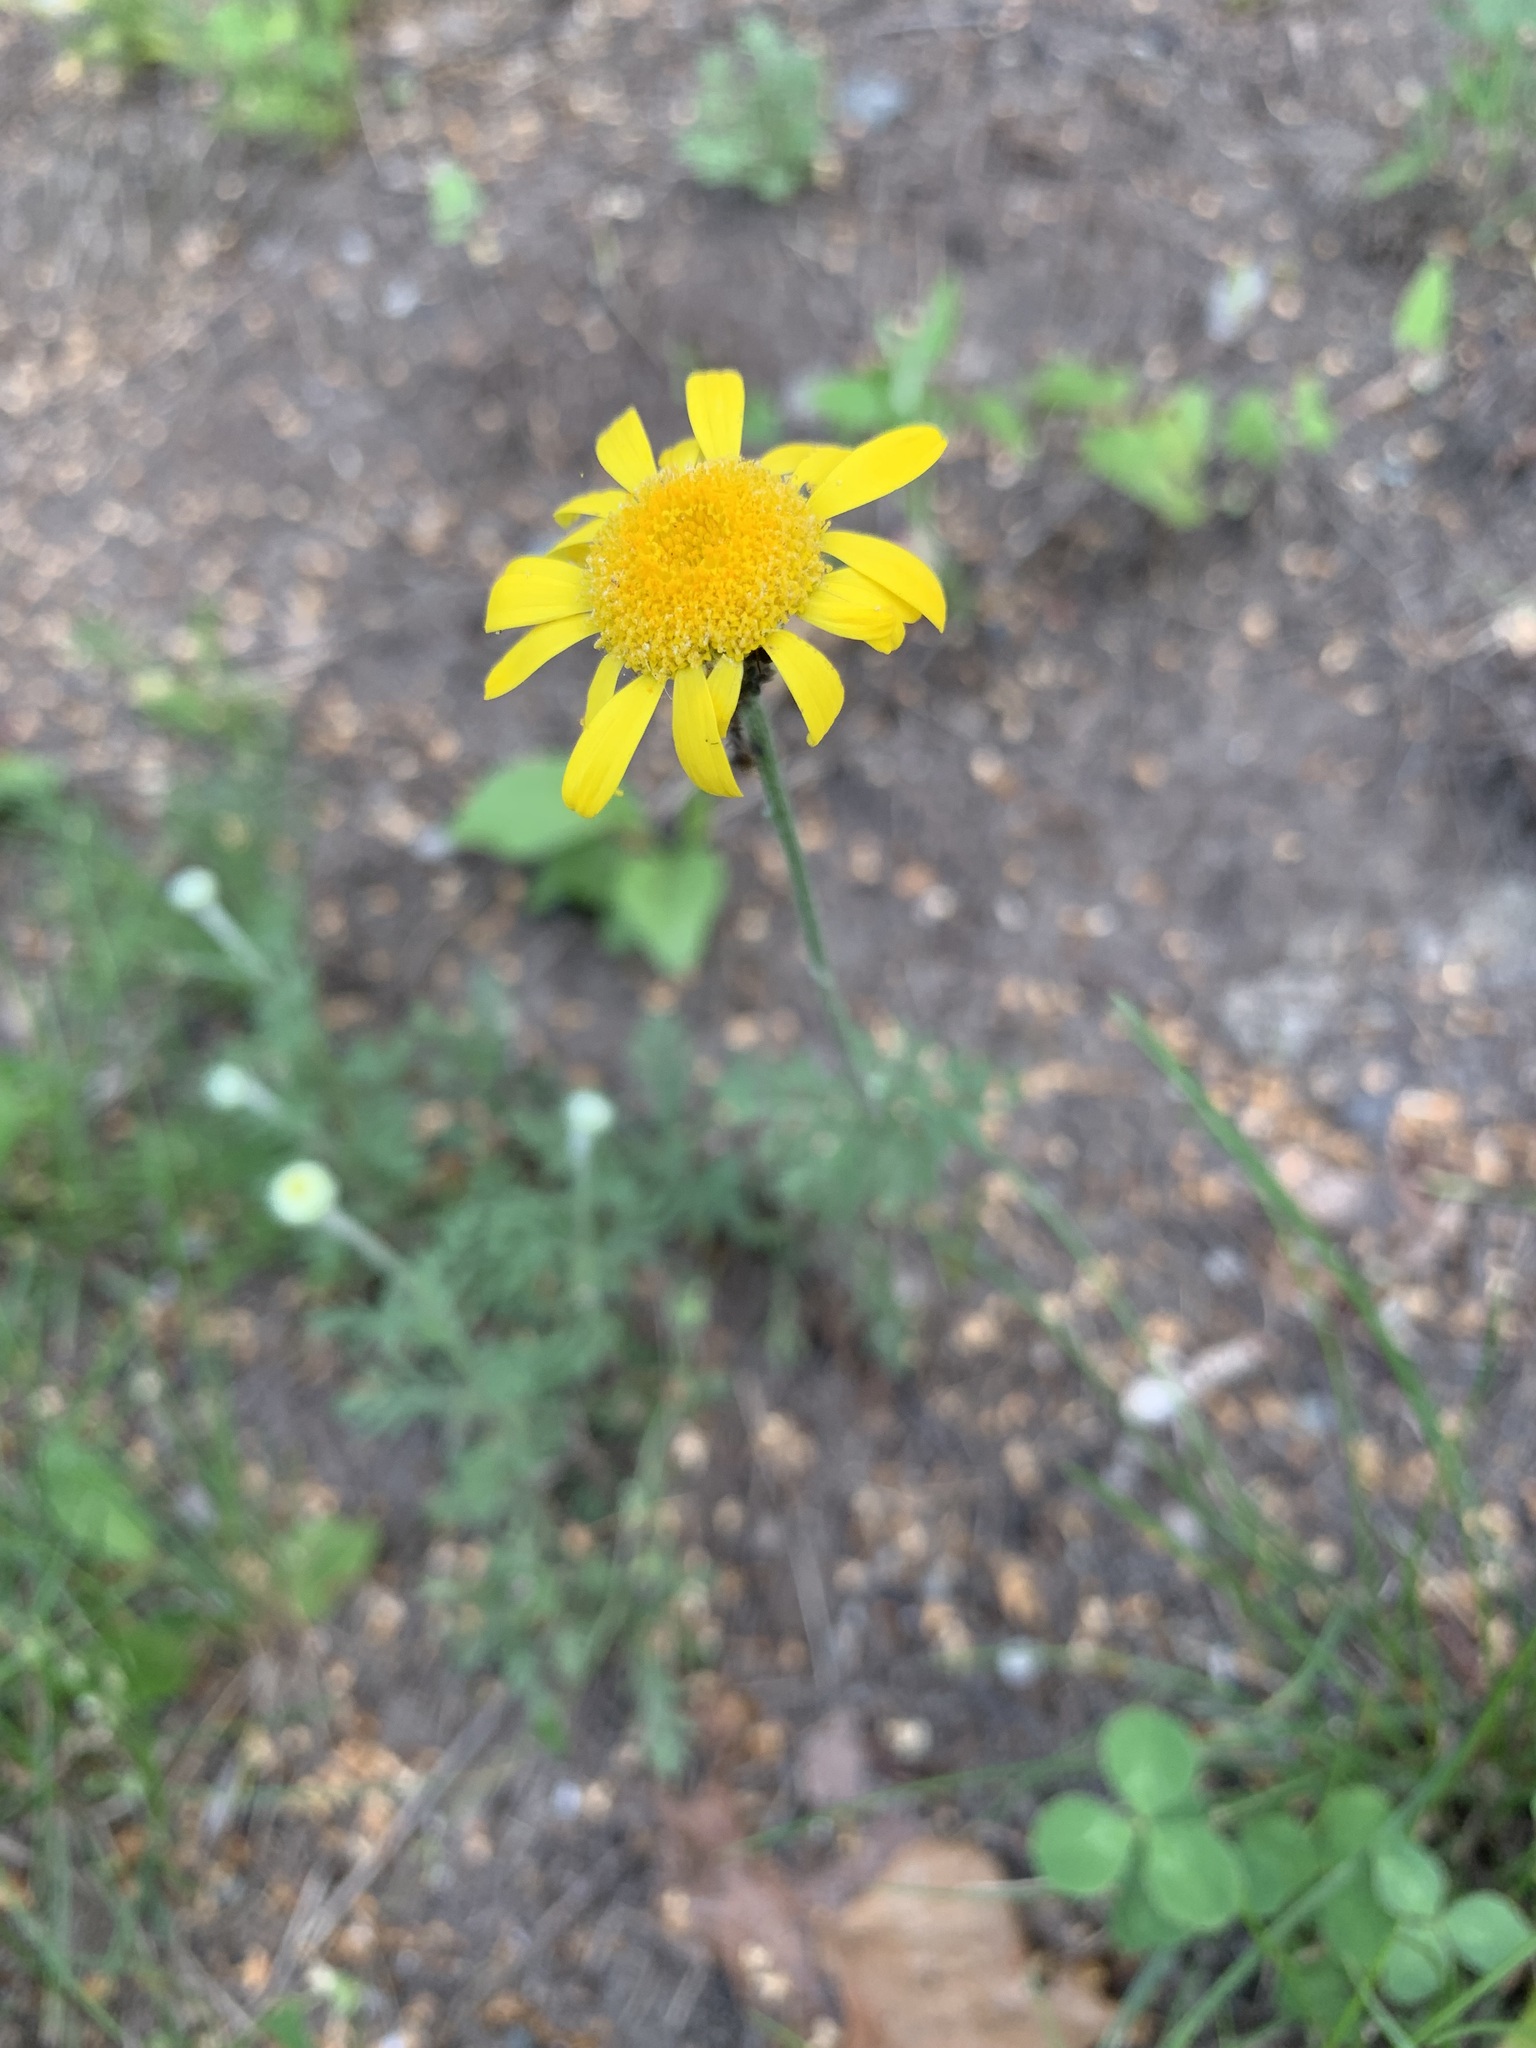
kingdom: Plantae
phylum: Tracheophyta
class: Magnoliopsida
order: Asterales
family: Asteraceae
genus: Cota
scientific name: Cota tinctoria
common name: Golden chamomile
